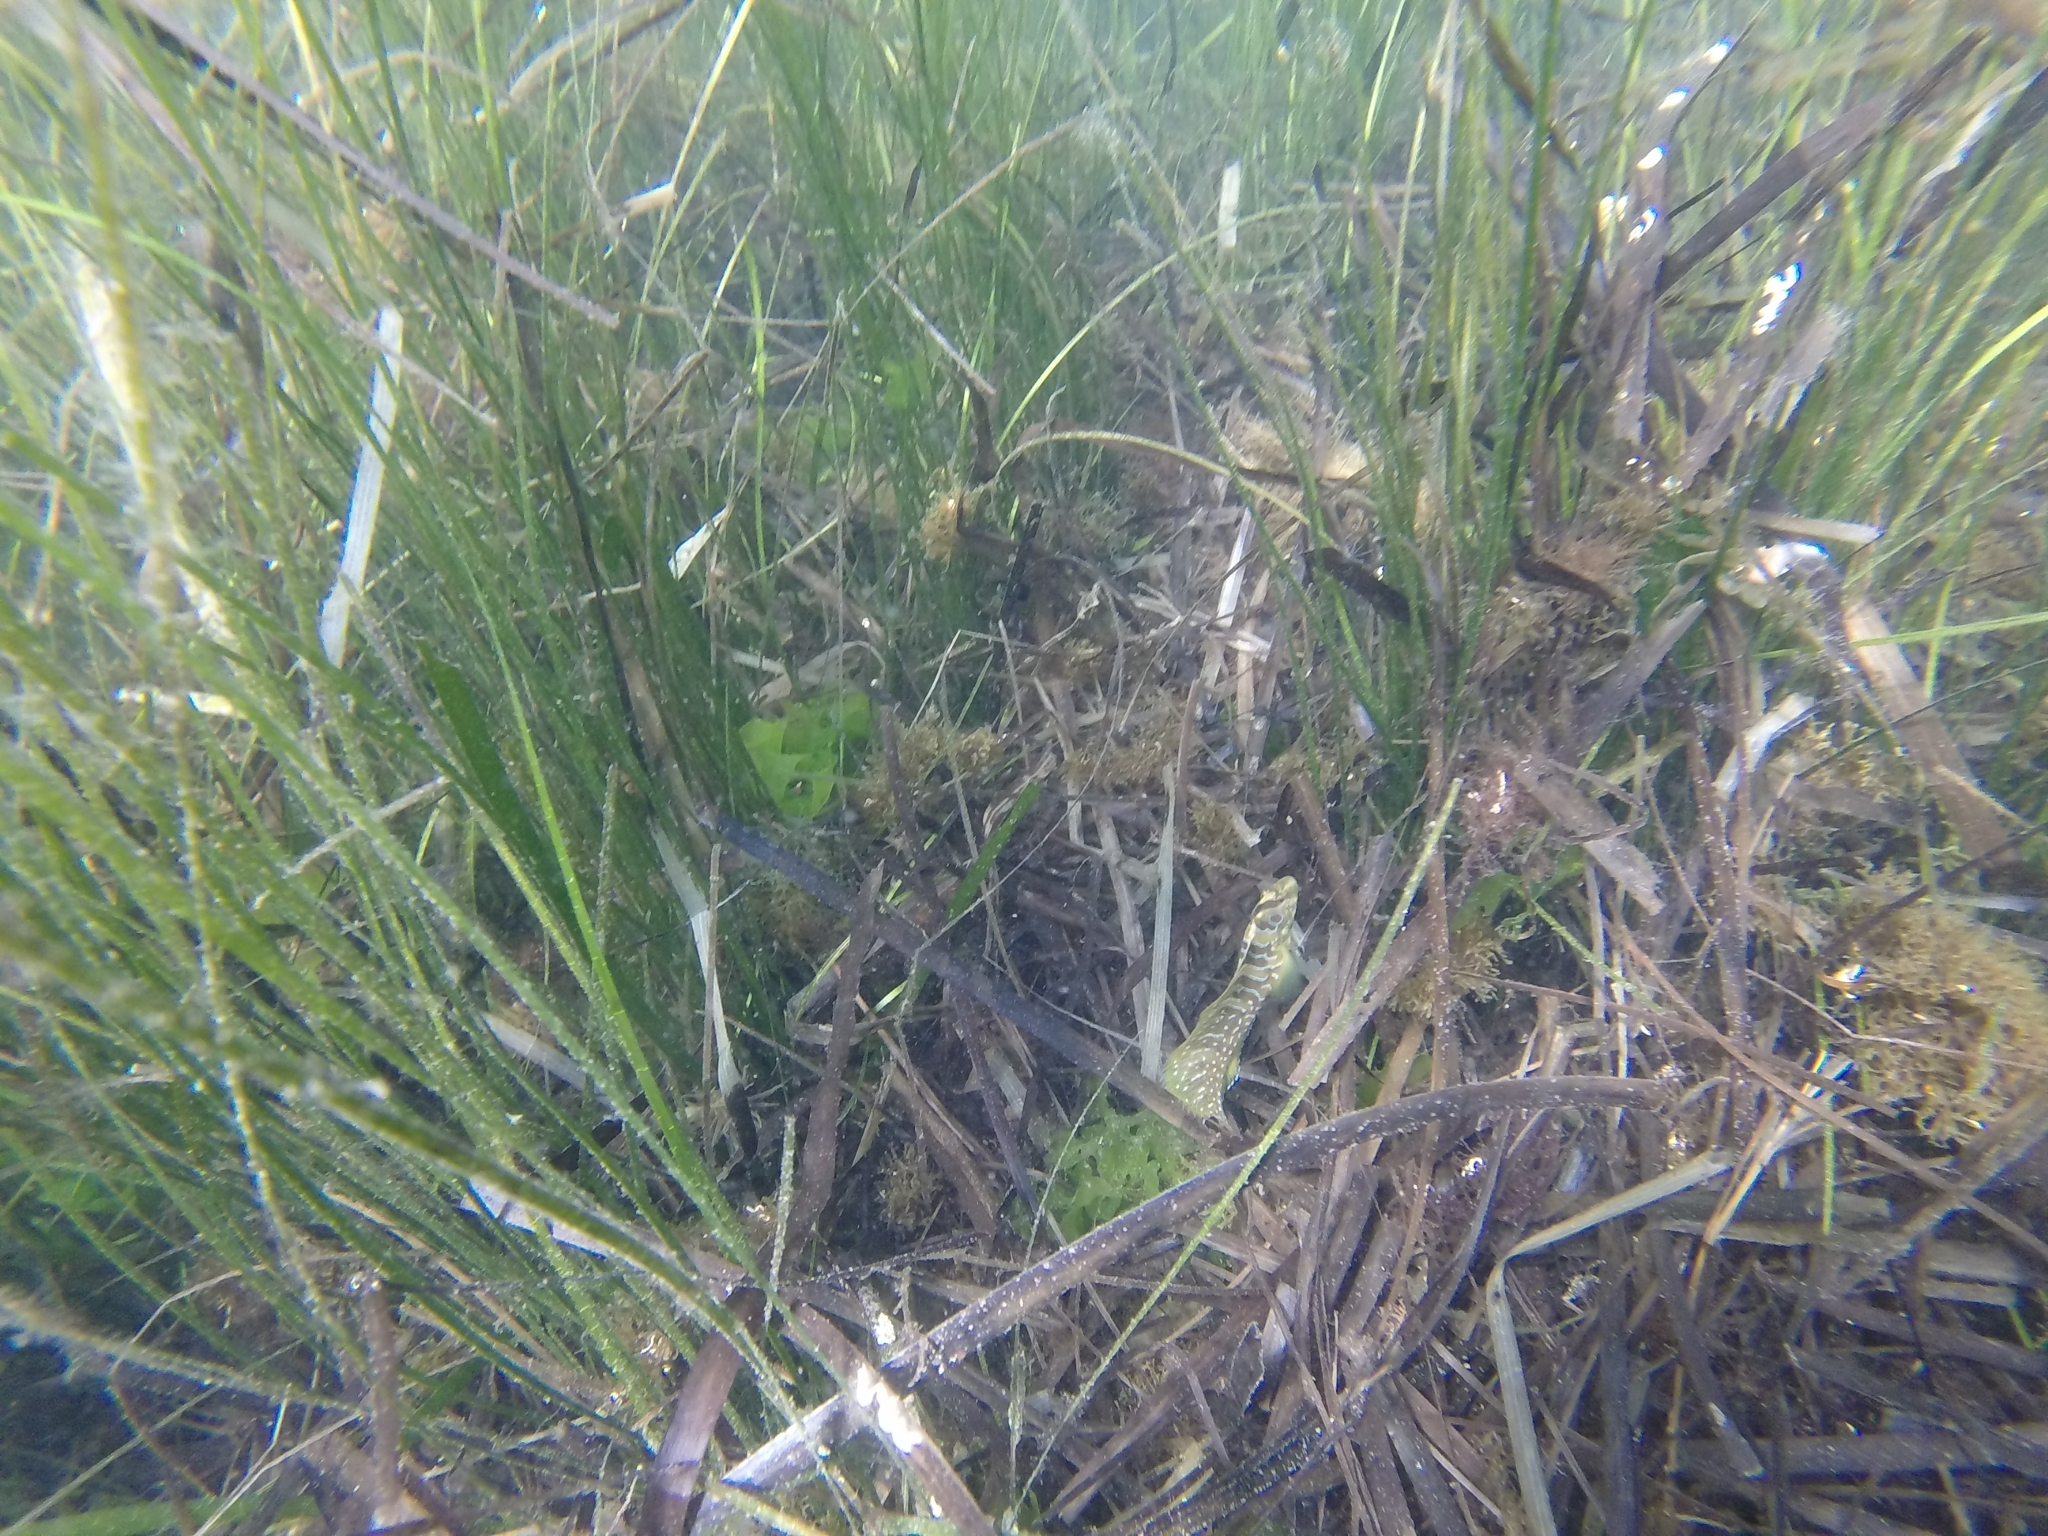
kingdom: Animalia
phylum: Chordata
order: Perciformes
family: Blenniidae
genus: Salaria
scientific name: Salaria pavo
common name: Peacock blenny
